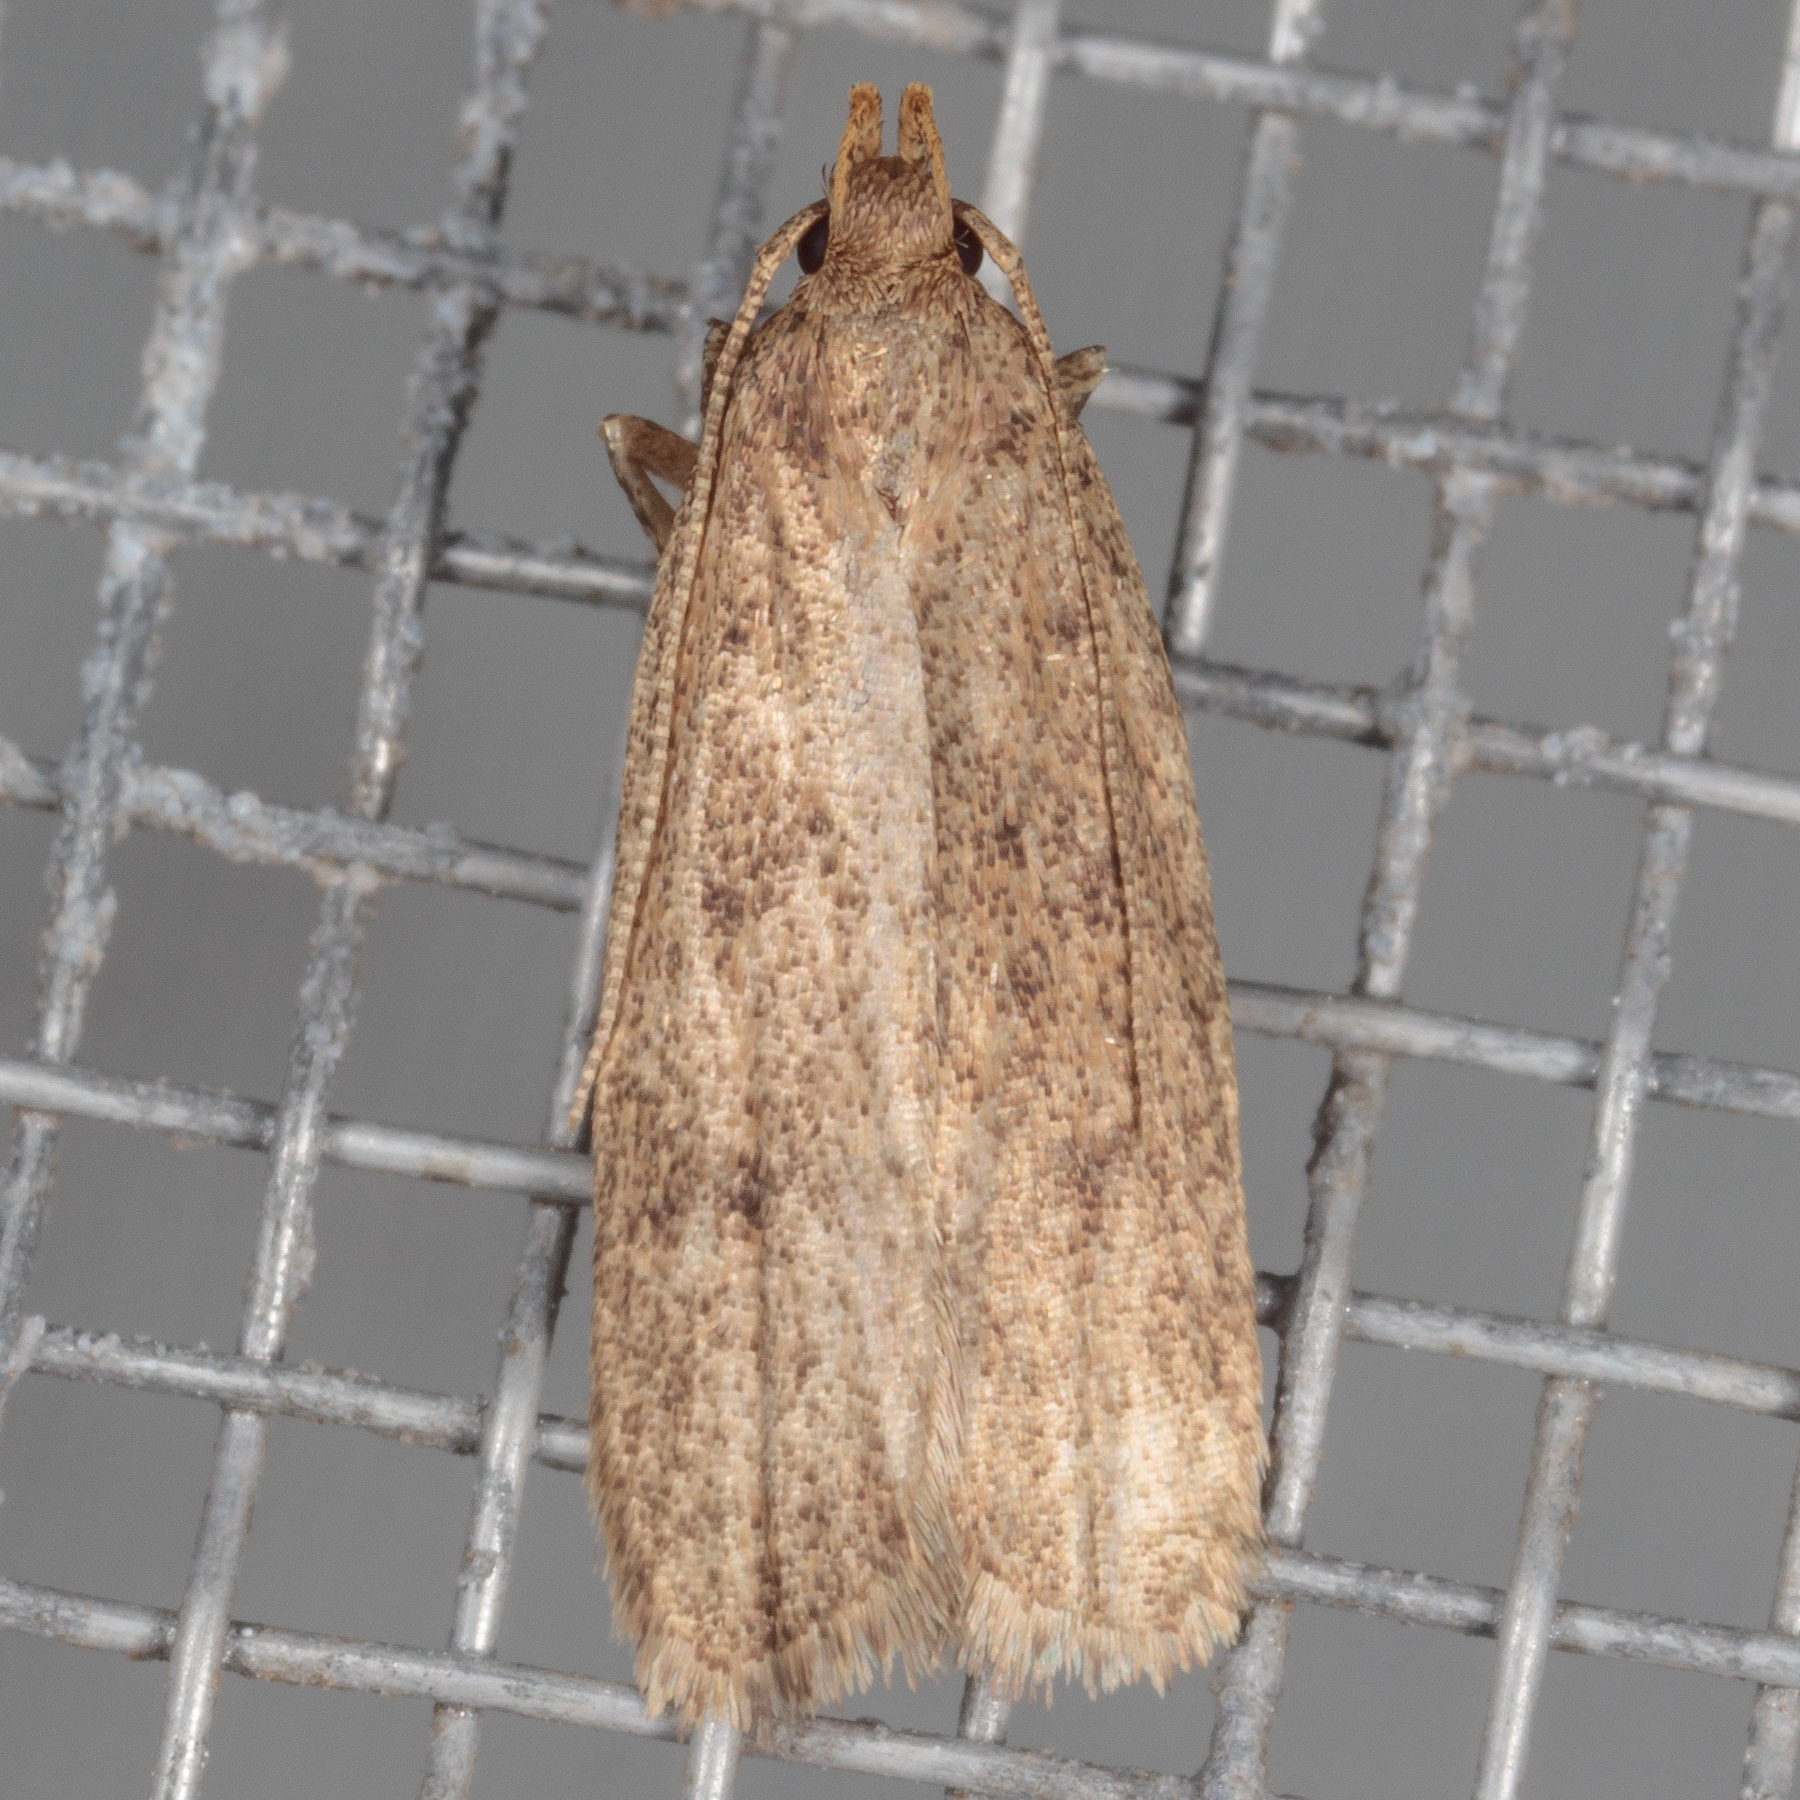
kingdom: Animalia
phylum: Arthropoda
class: Insecta
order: Lepidoptera
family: Autostichidae
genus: Glyphidocera
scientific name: Glyphidocera juniperella
